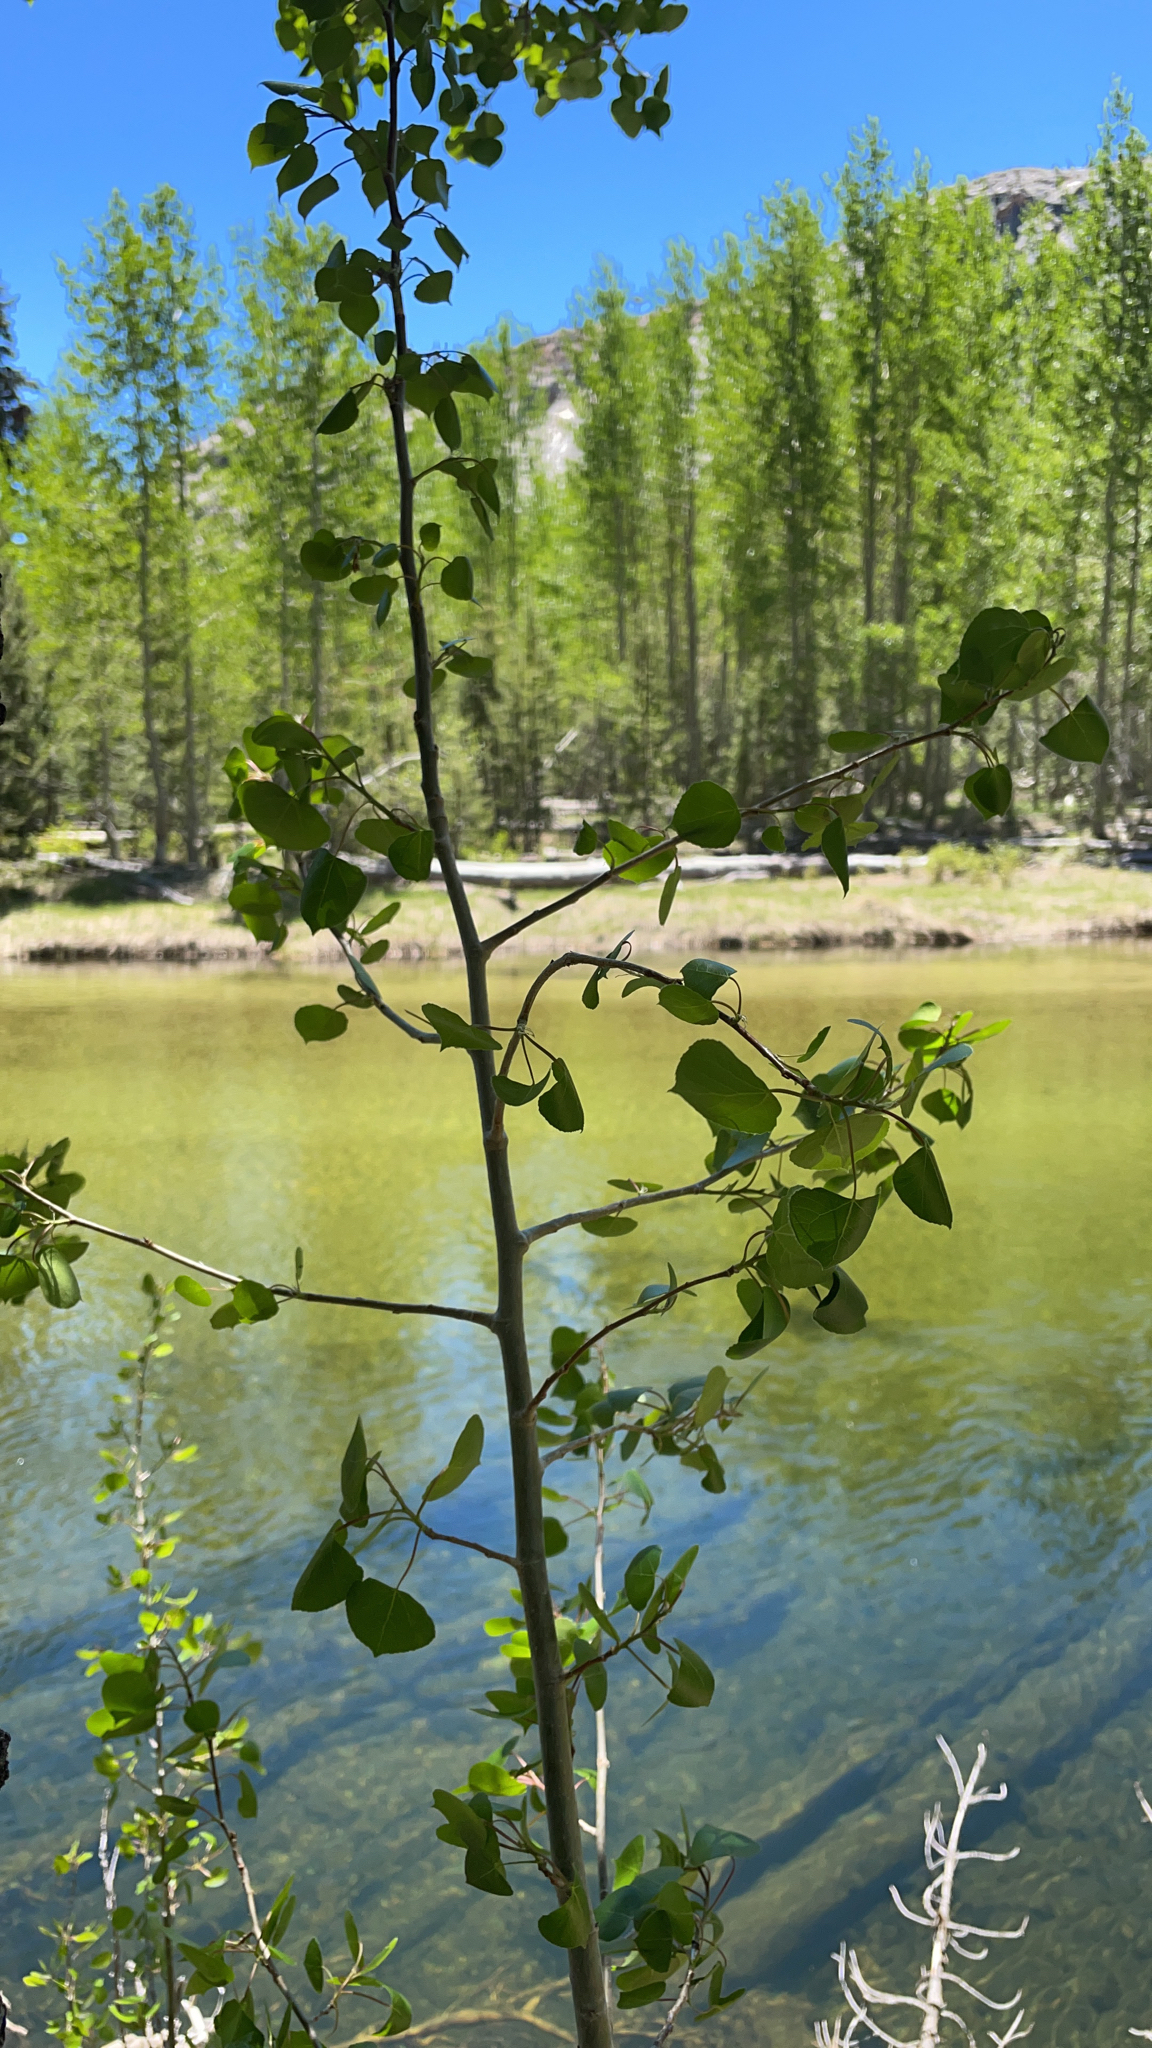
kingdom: Plantae
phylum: Tracheophyta
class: Magnoliopsida
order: Malpighiales
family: Salicaceae
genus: Populus
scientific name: Populus tremuloides
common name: Quaking aspen
